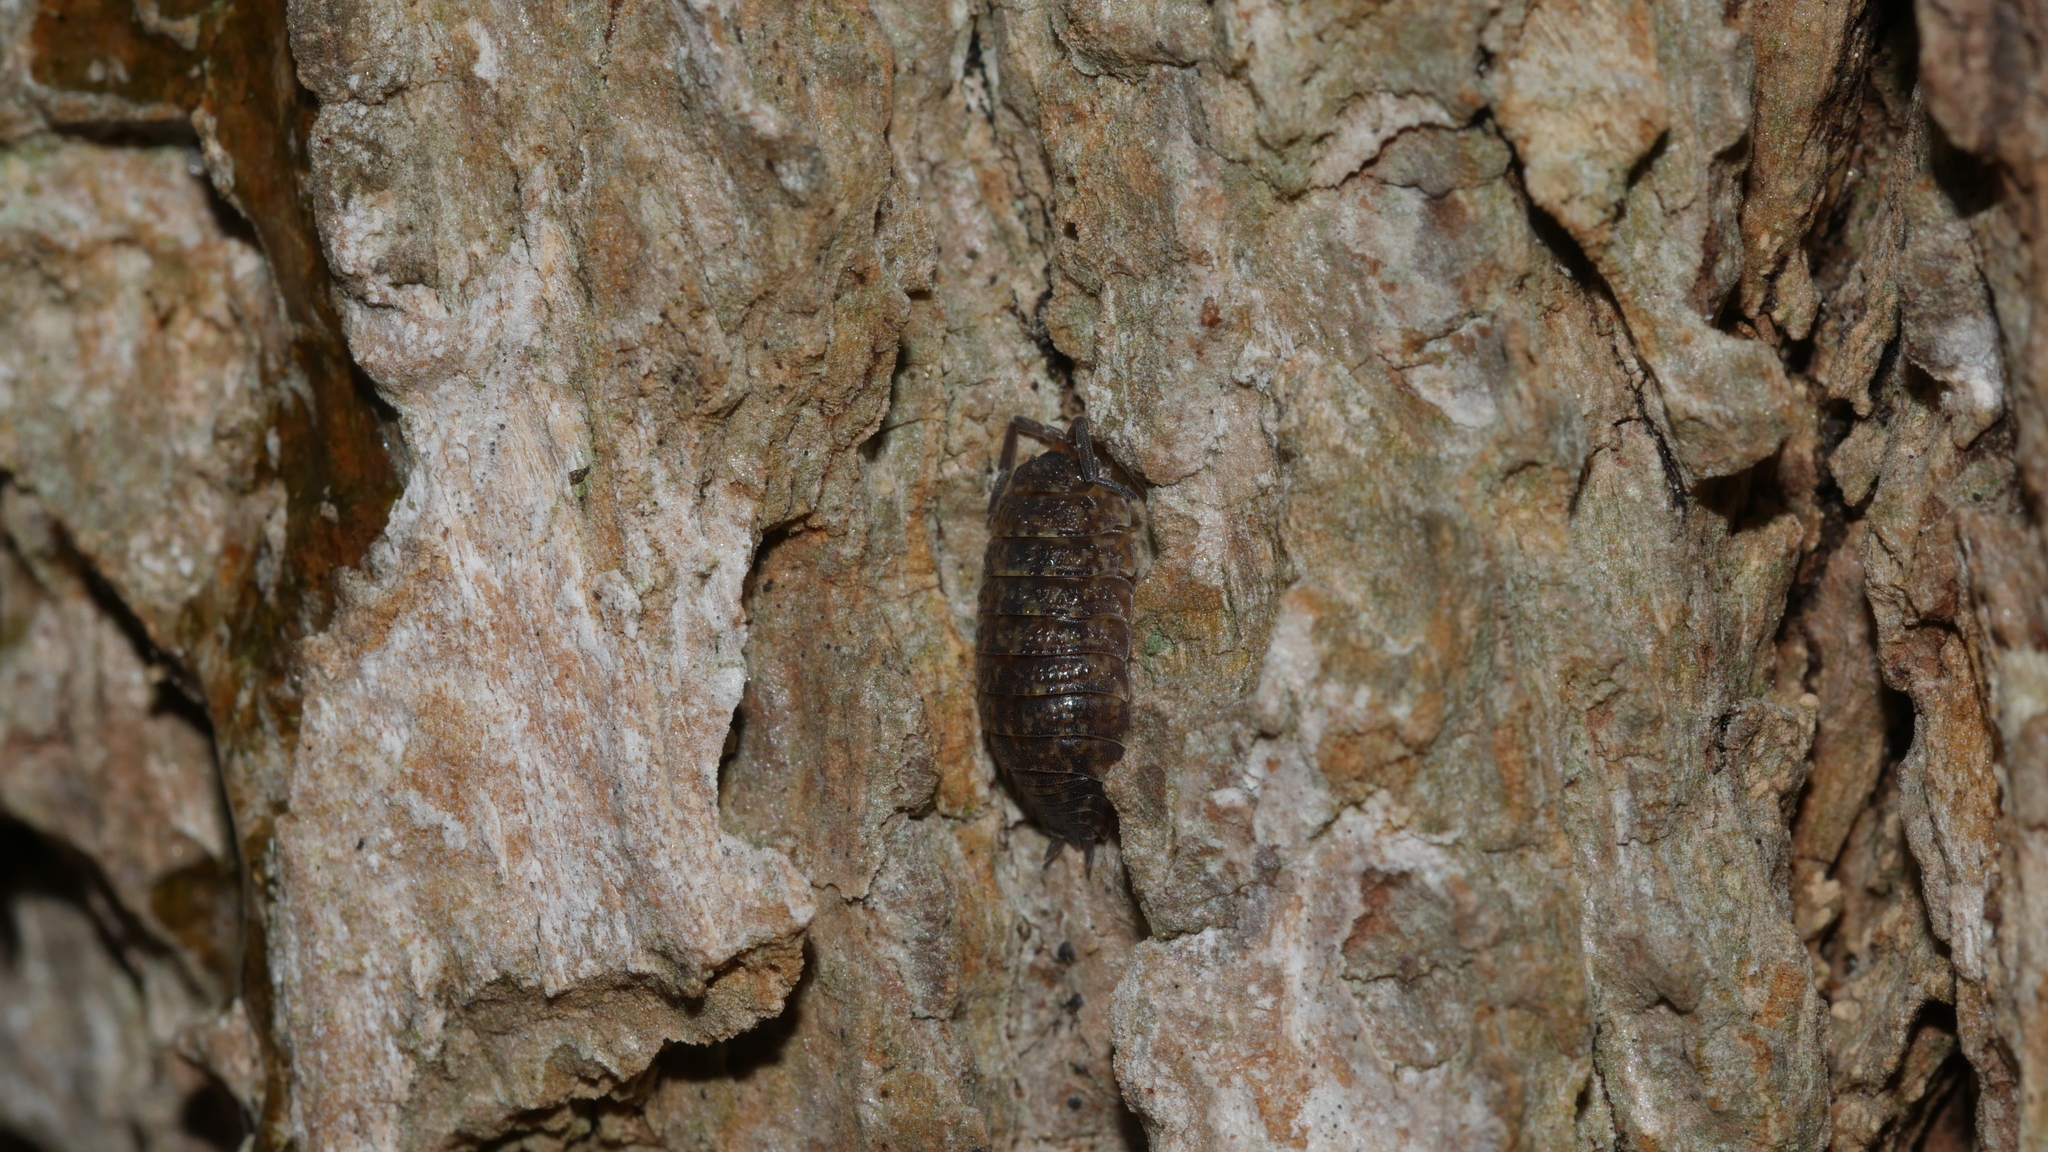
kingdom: Animalia
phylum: Arthropoda
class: Malacostraca
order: Isopoda
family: Porcellionidae
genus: Porcellio
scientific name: Porcellio scaber
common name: Common rough woodlouse
